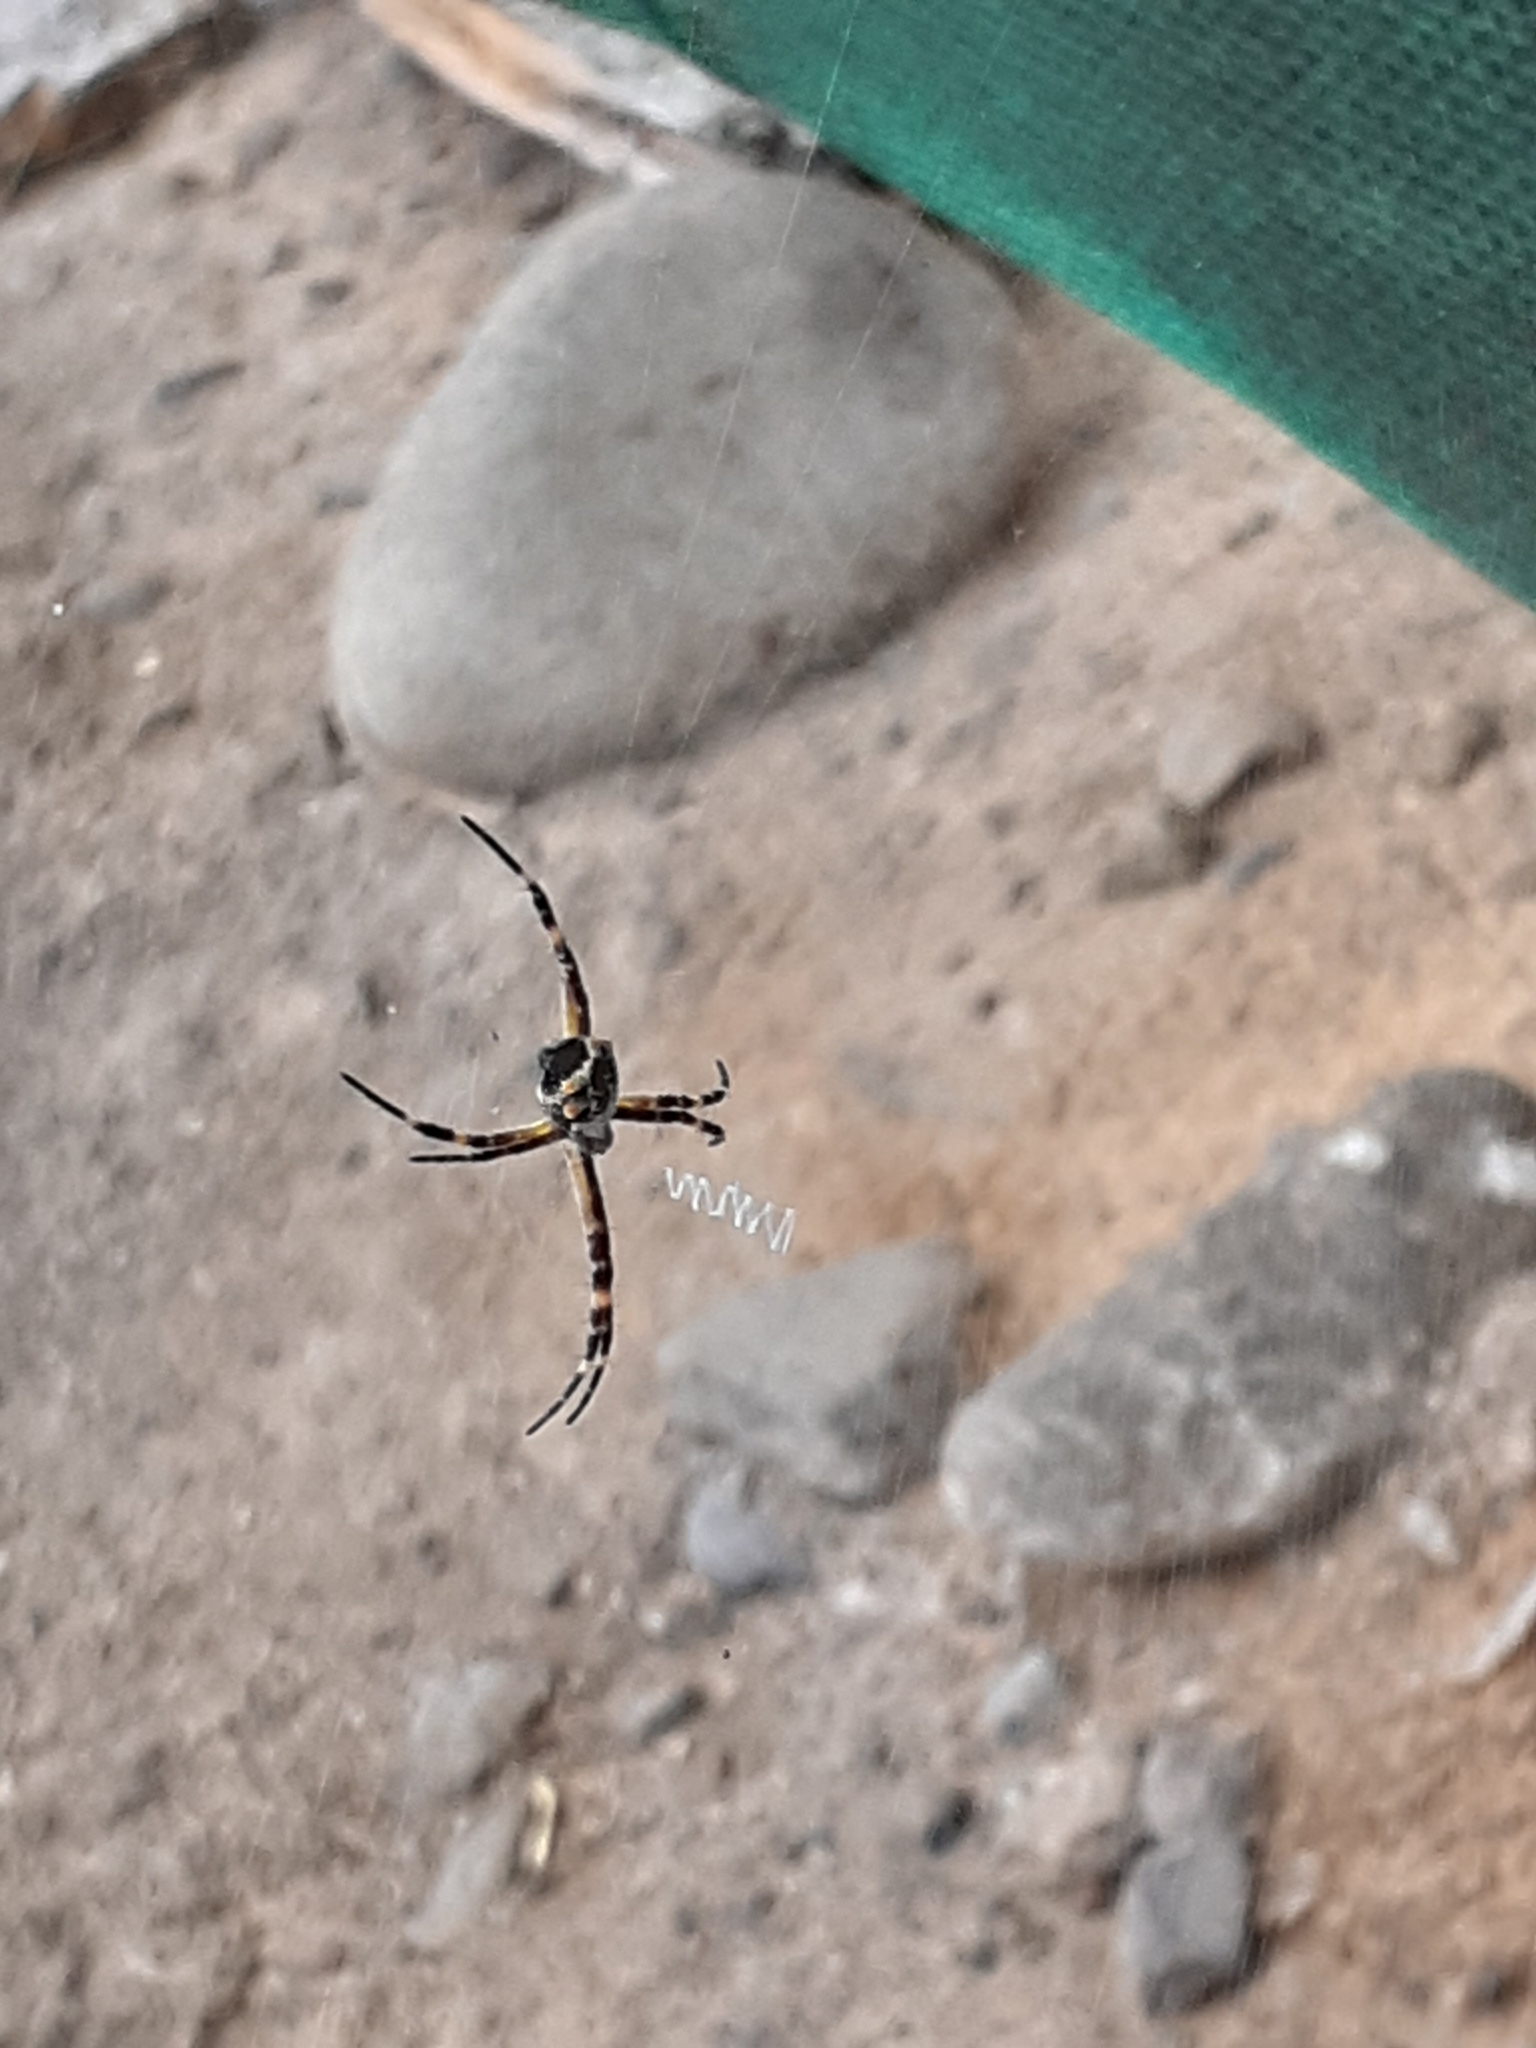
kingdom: Animalia
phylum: Arthropoda
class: Arachnida
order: Araneae
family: Araneidae
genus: Argiope
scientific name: Argiope argentata
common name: Orb weavers
